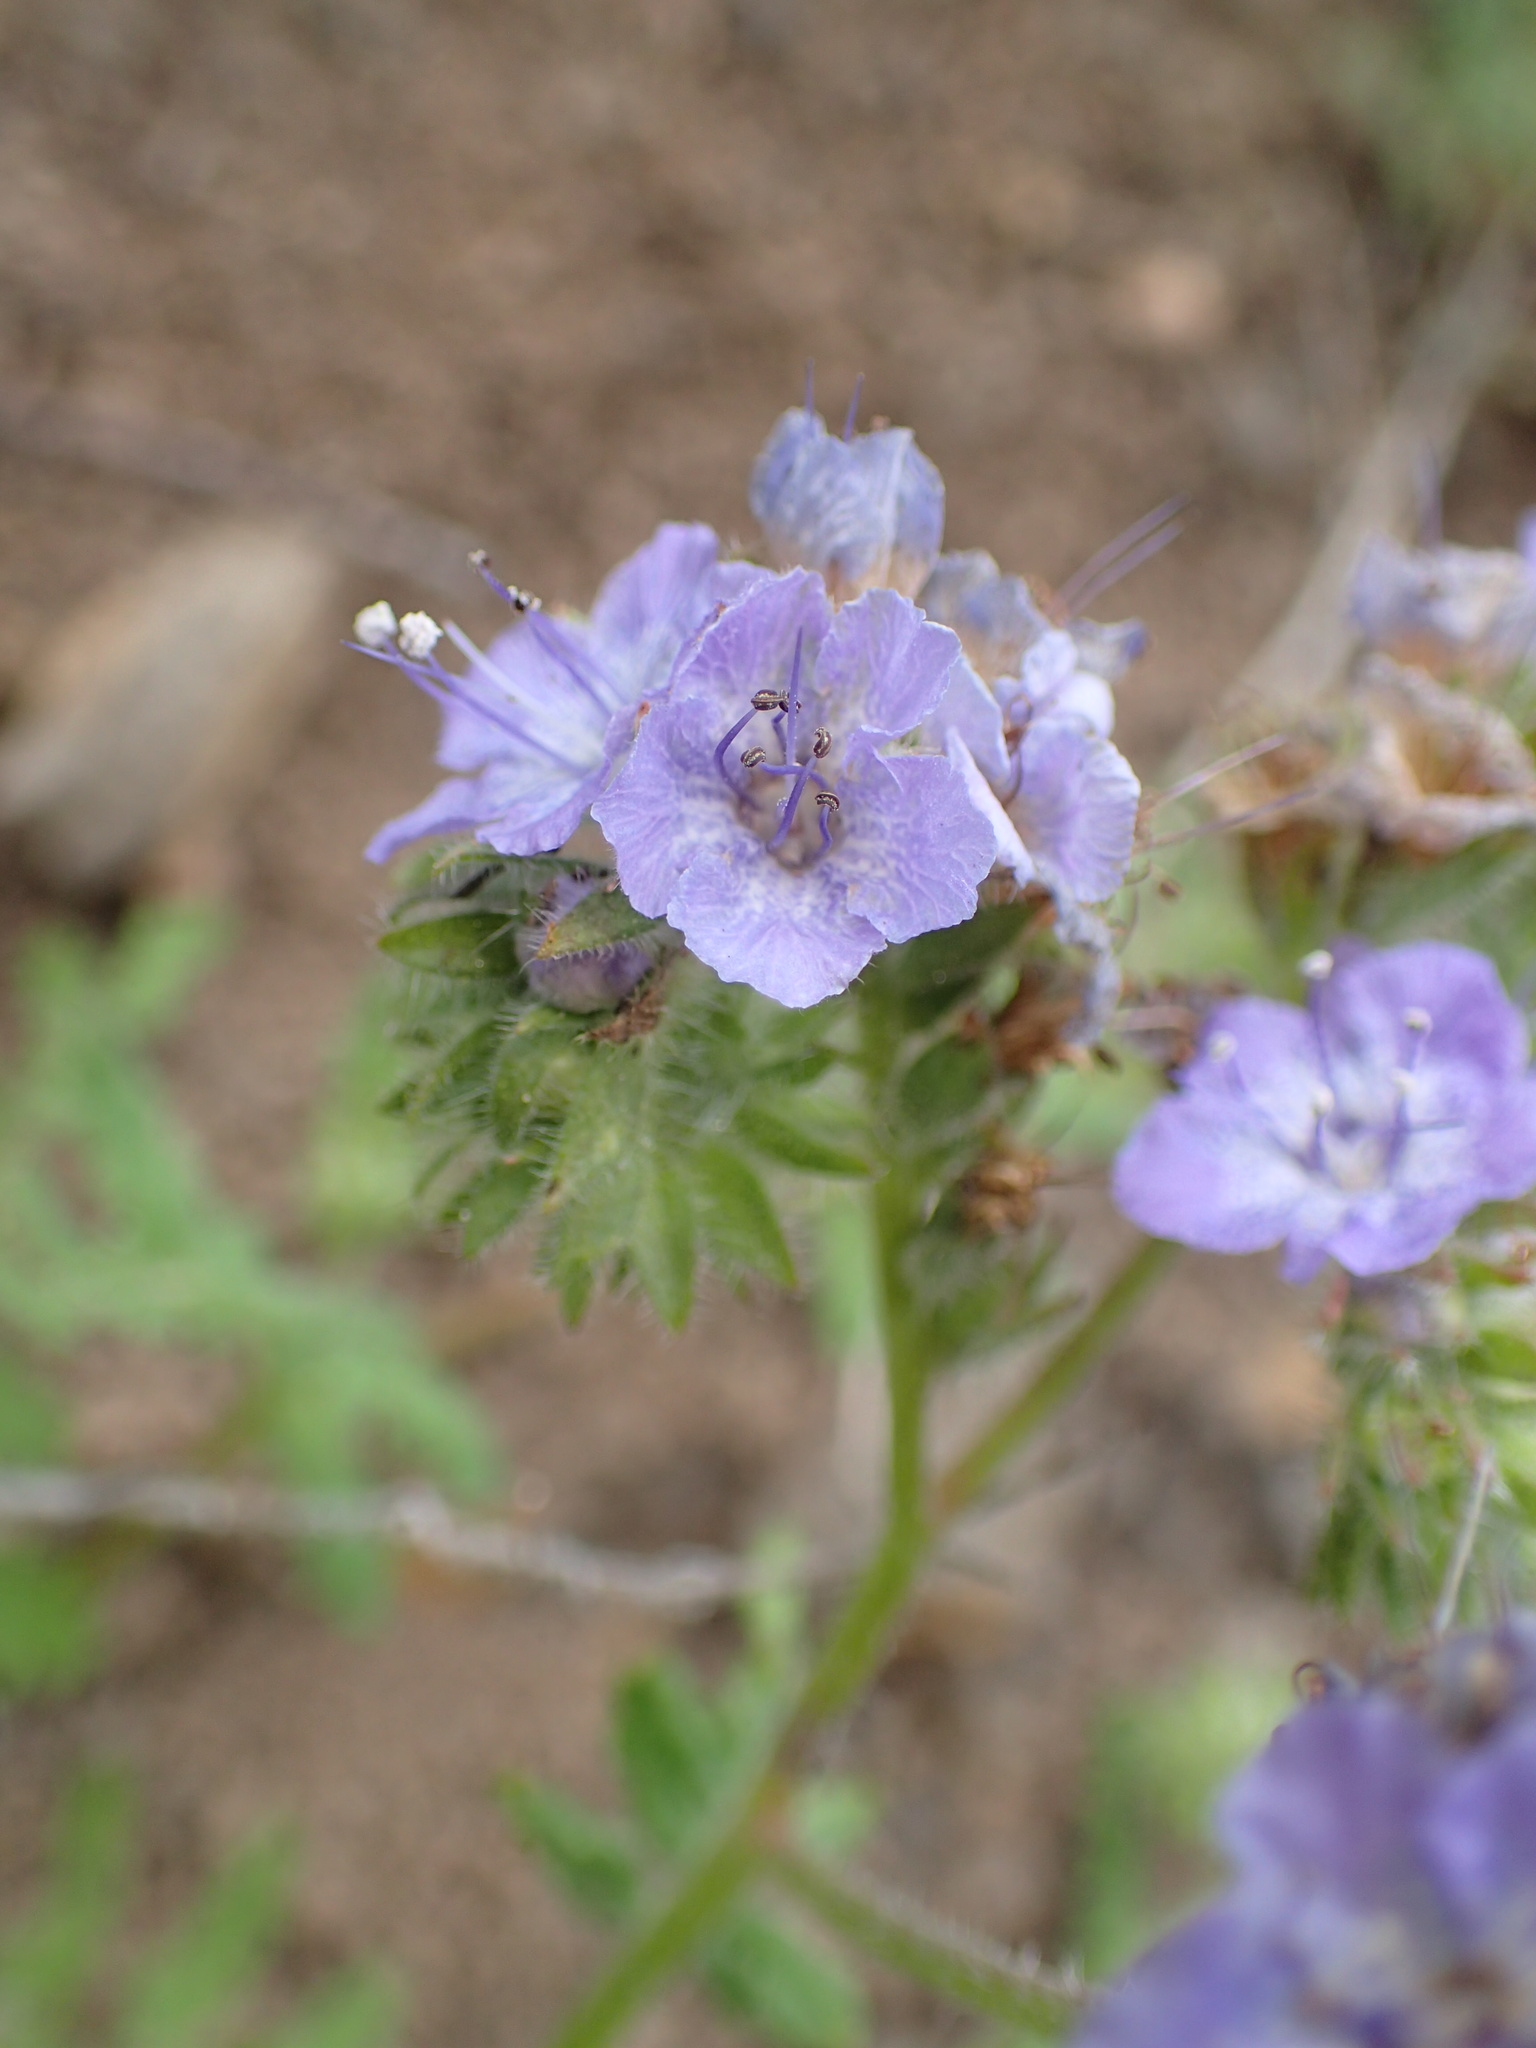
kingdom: Plantae
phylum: Tracheophyta
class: Magnoliopsida
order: Boraginales
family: Hydrophyllaceae
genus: Phacelia
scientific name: Phacelia distans
